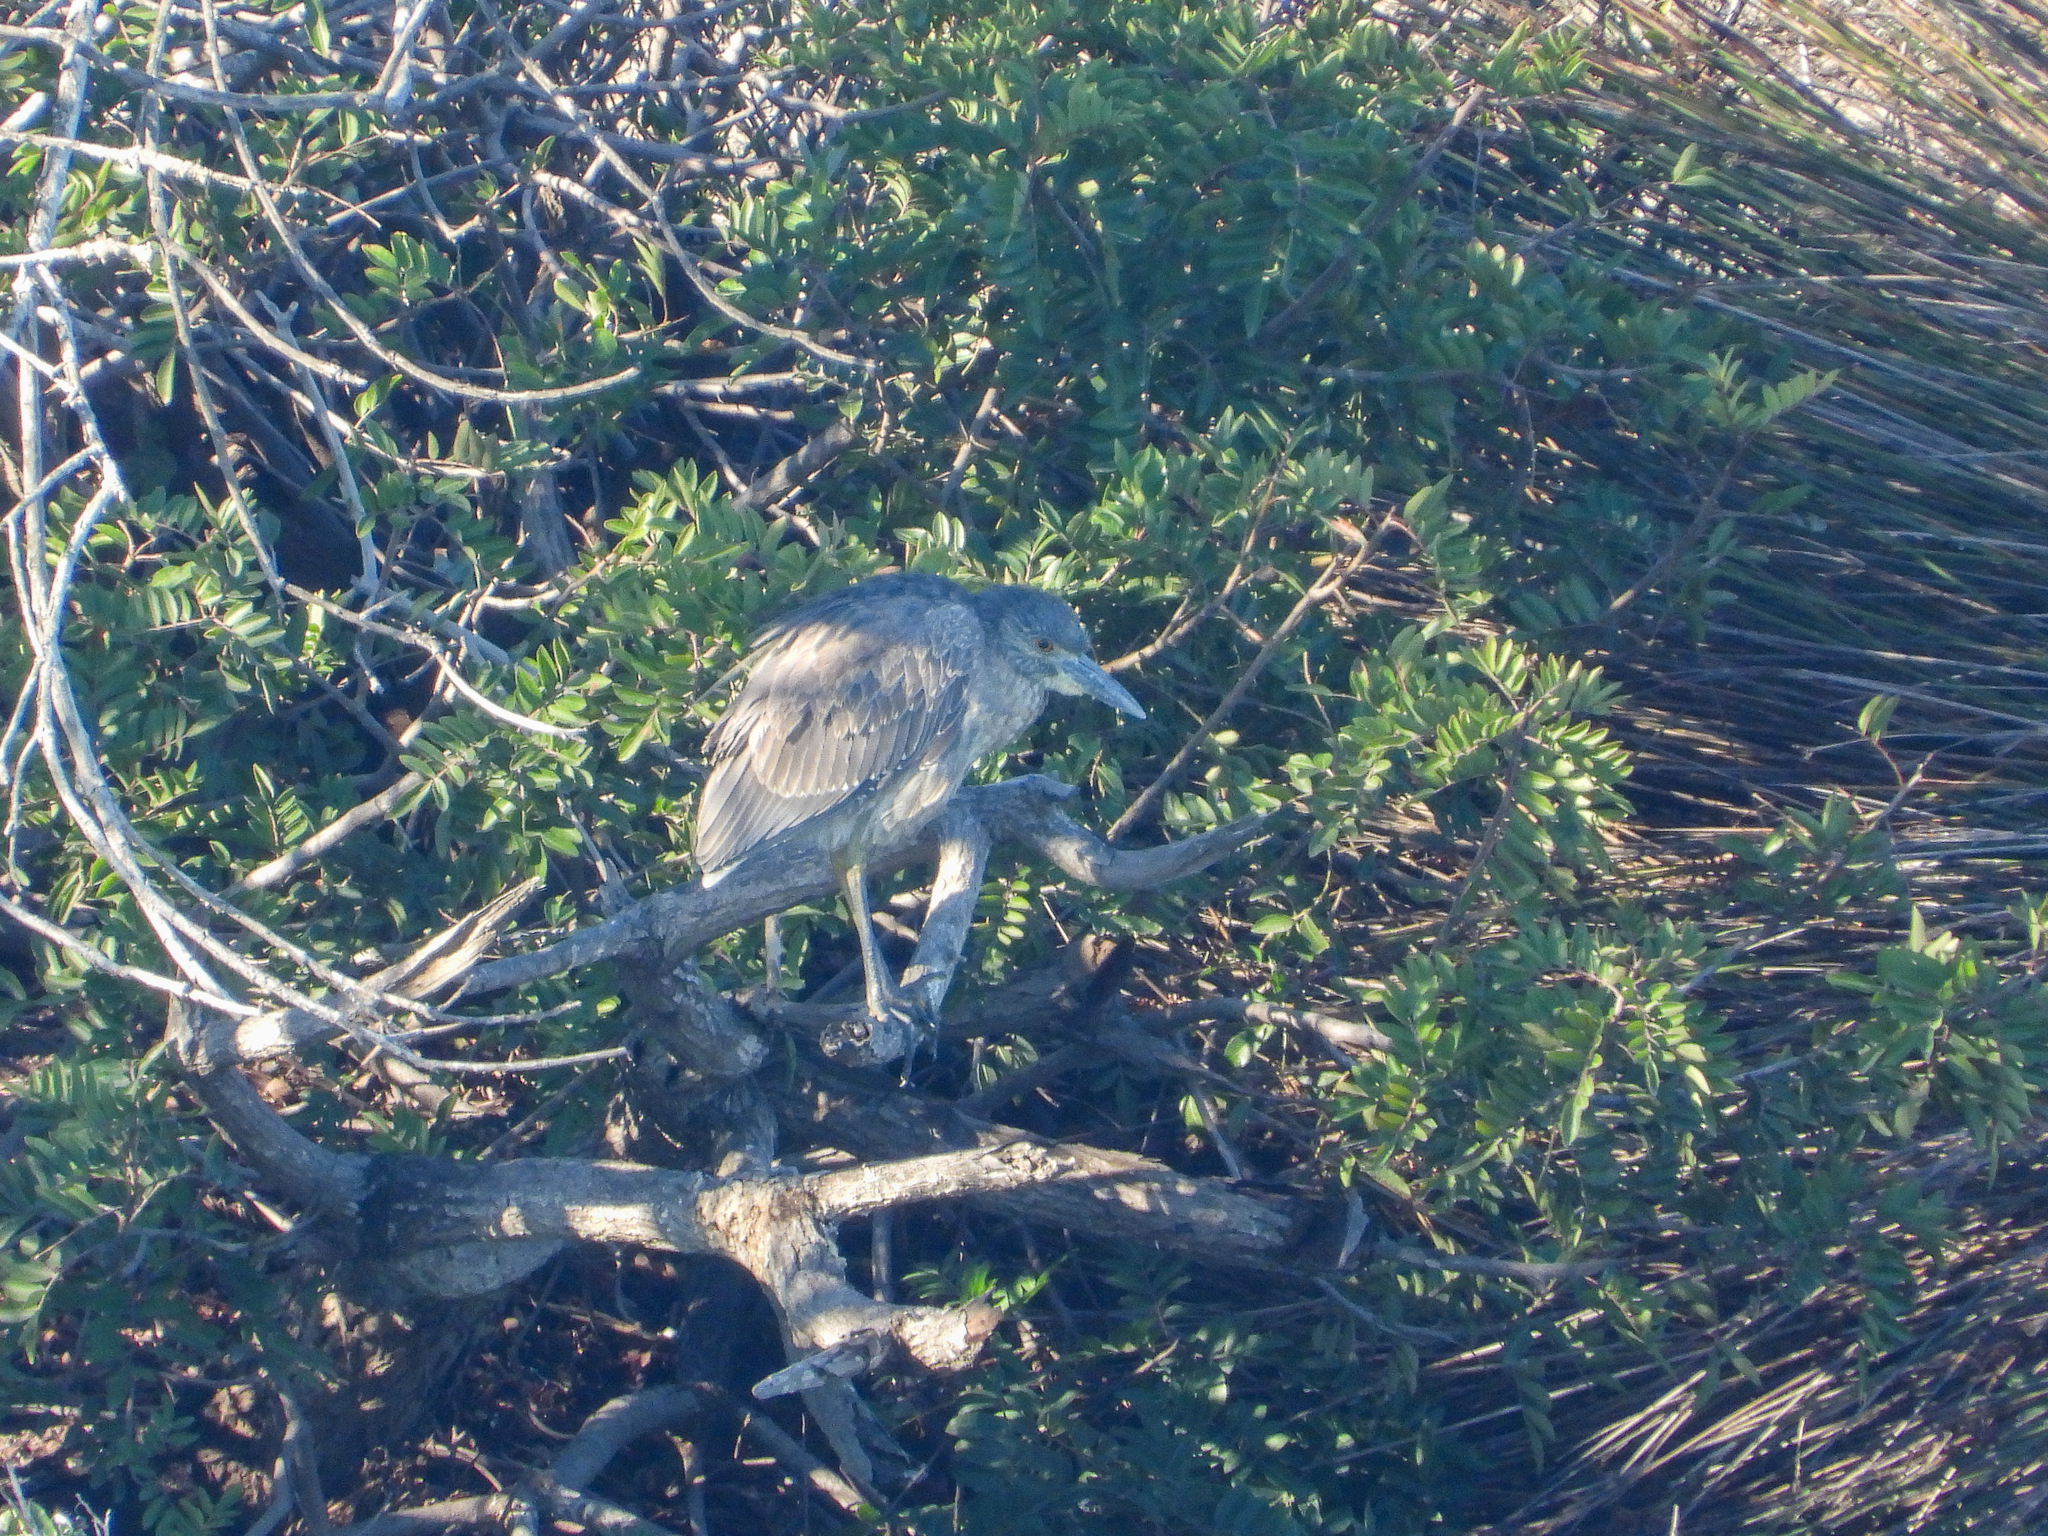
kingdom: Animalia
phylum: Chordata
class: Aves
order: Pelecaniformes
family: Ardeidae
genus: Nyctanassa
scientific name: Nyctanassa violacea
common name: Yellow-crowned night heron
